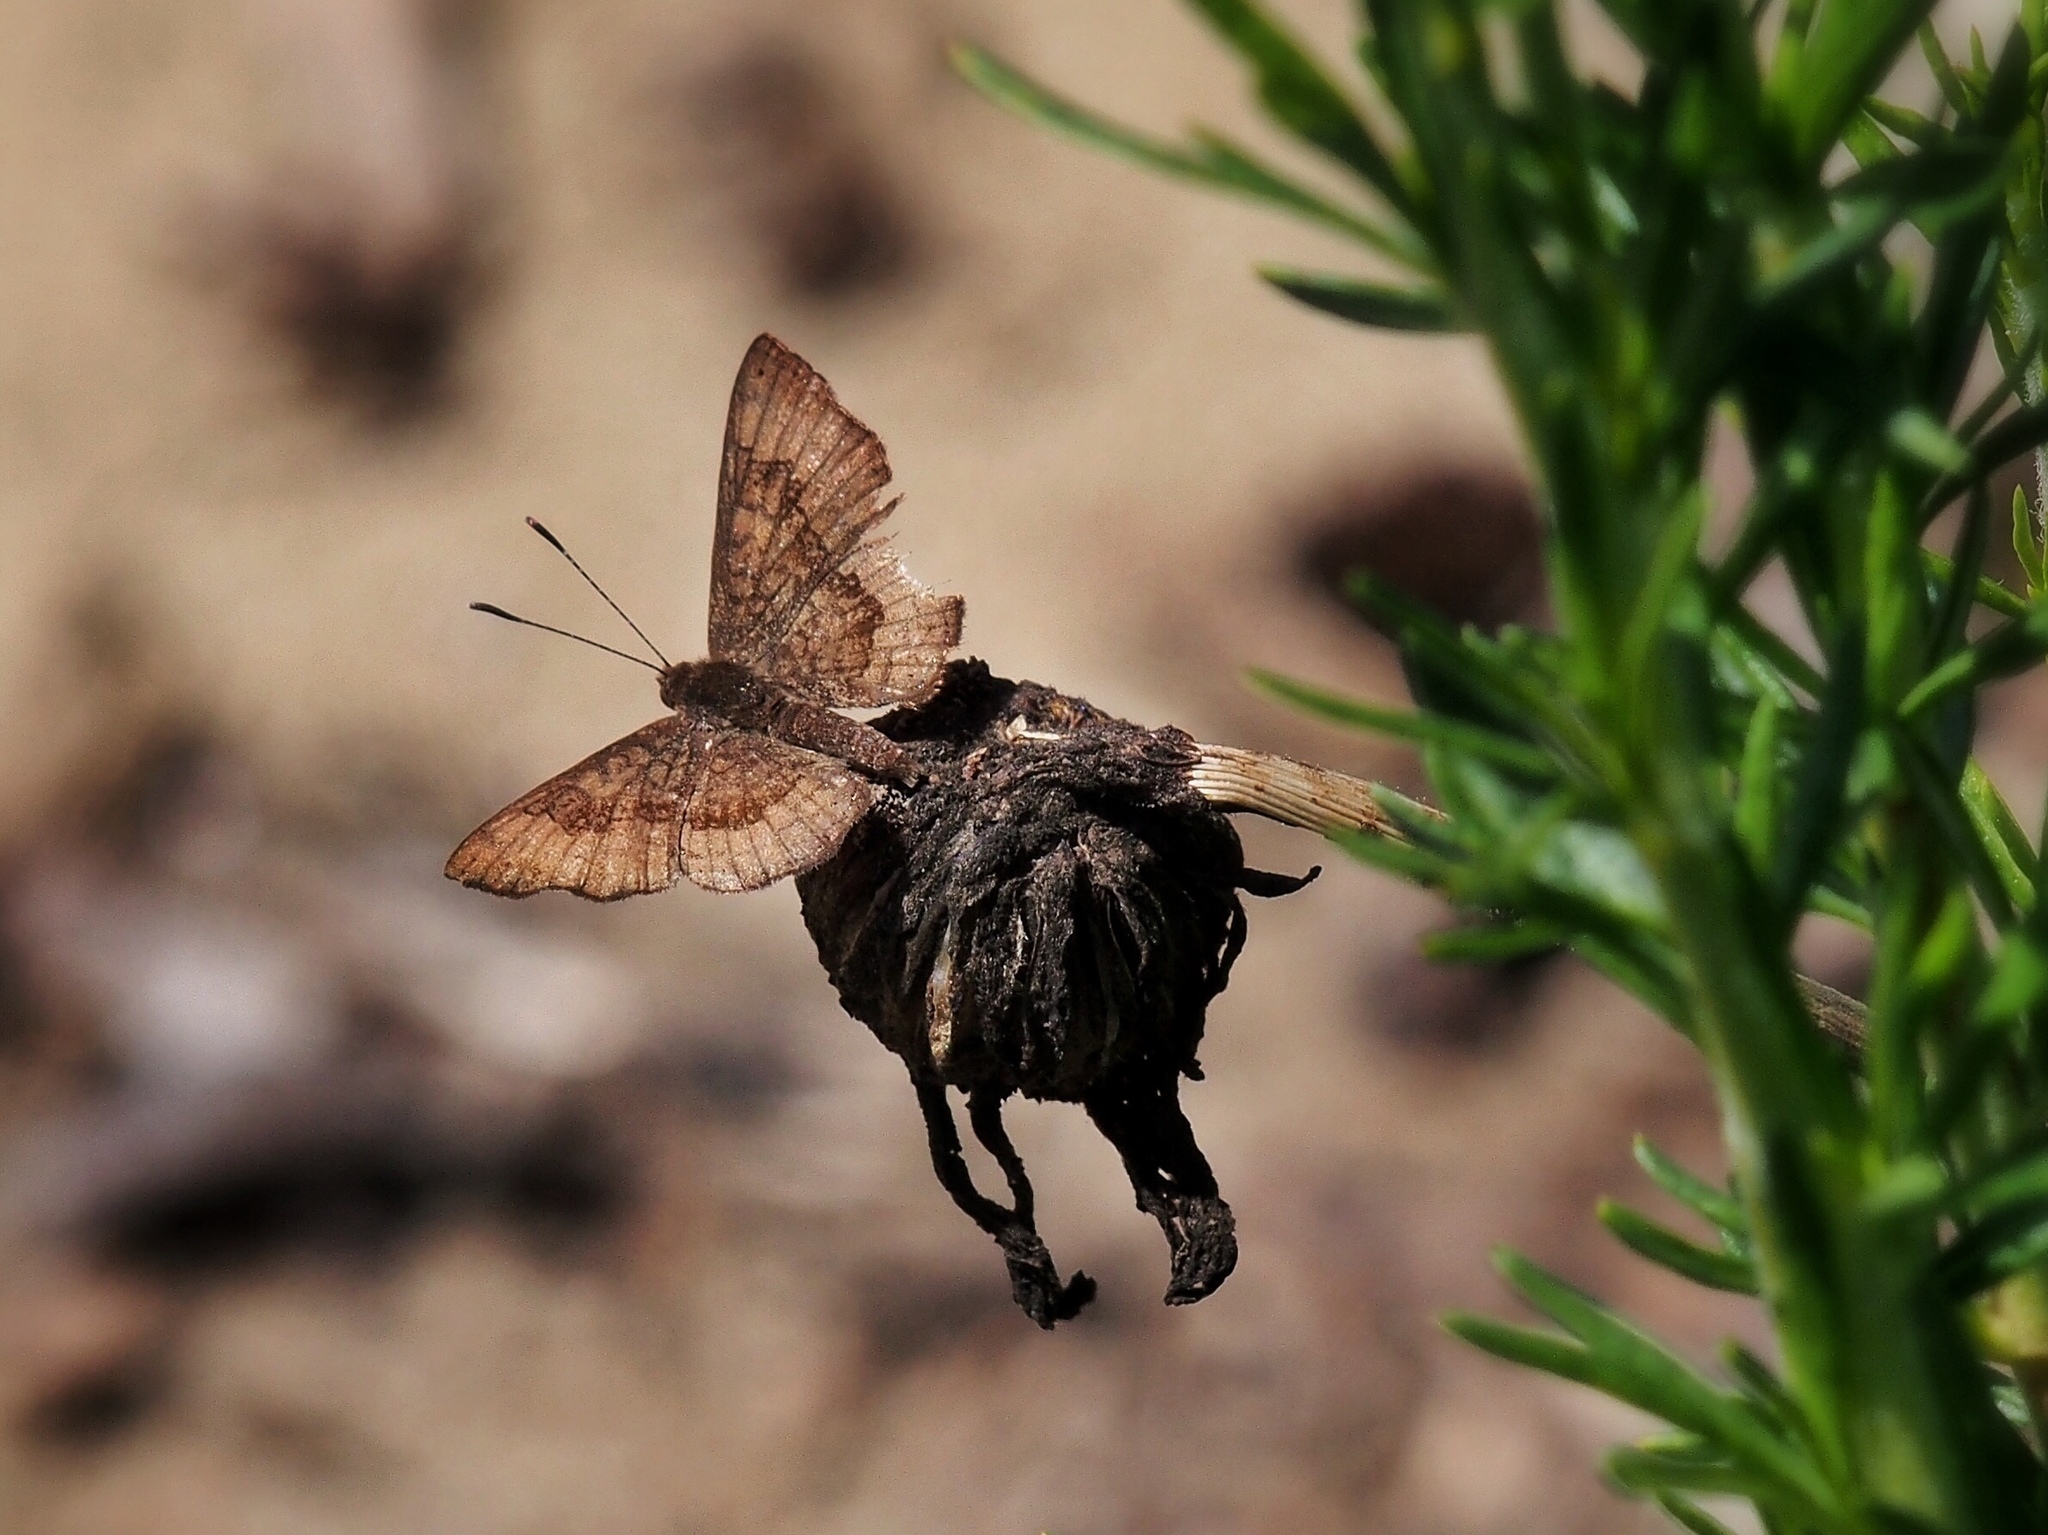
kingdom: Animalia
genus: Calephelis
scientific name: Calephelis nemesis
